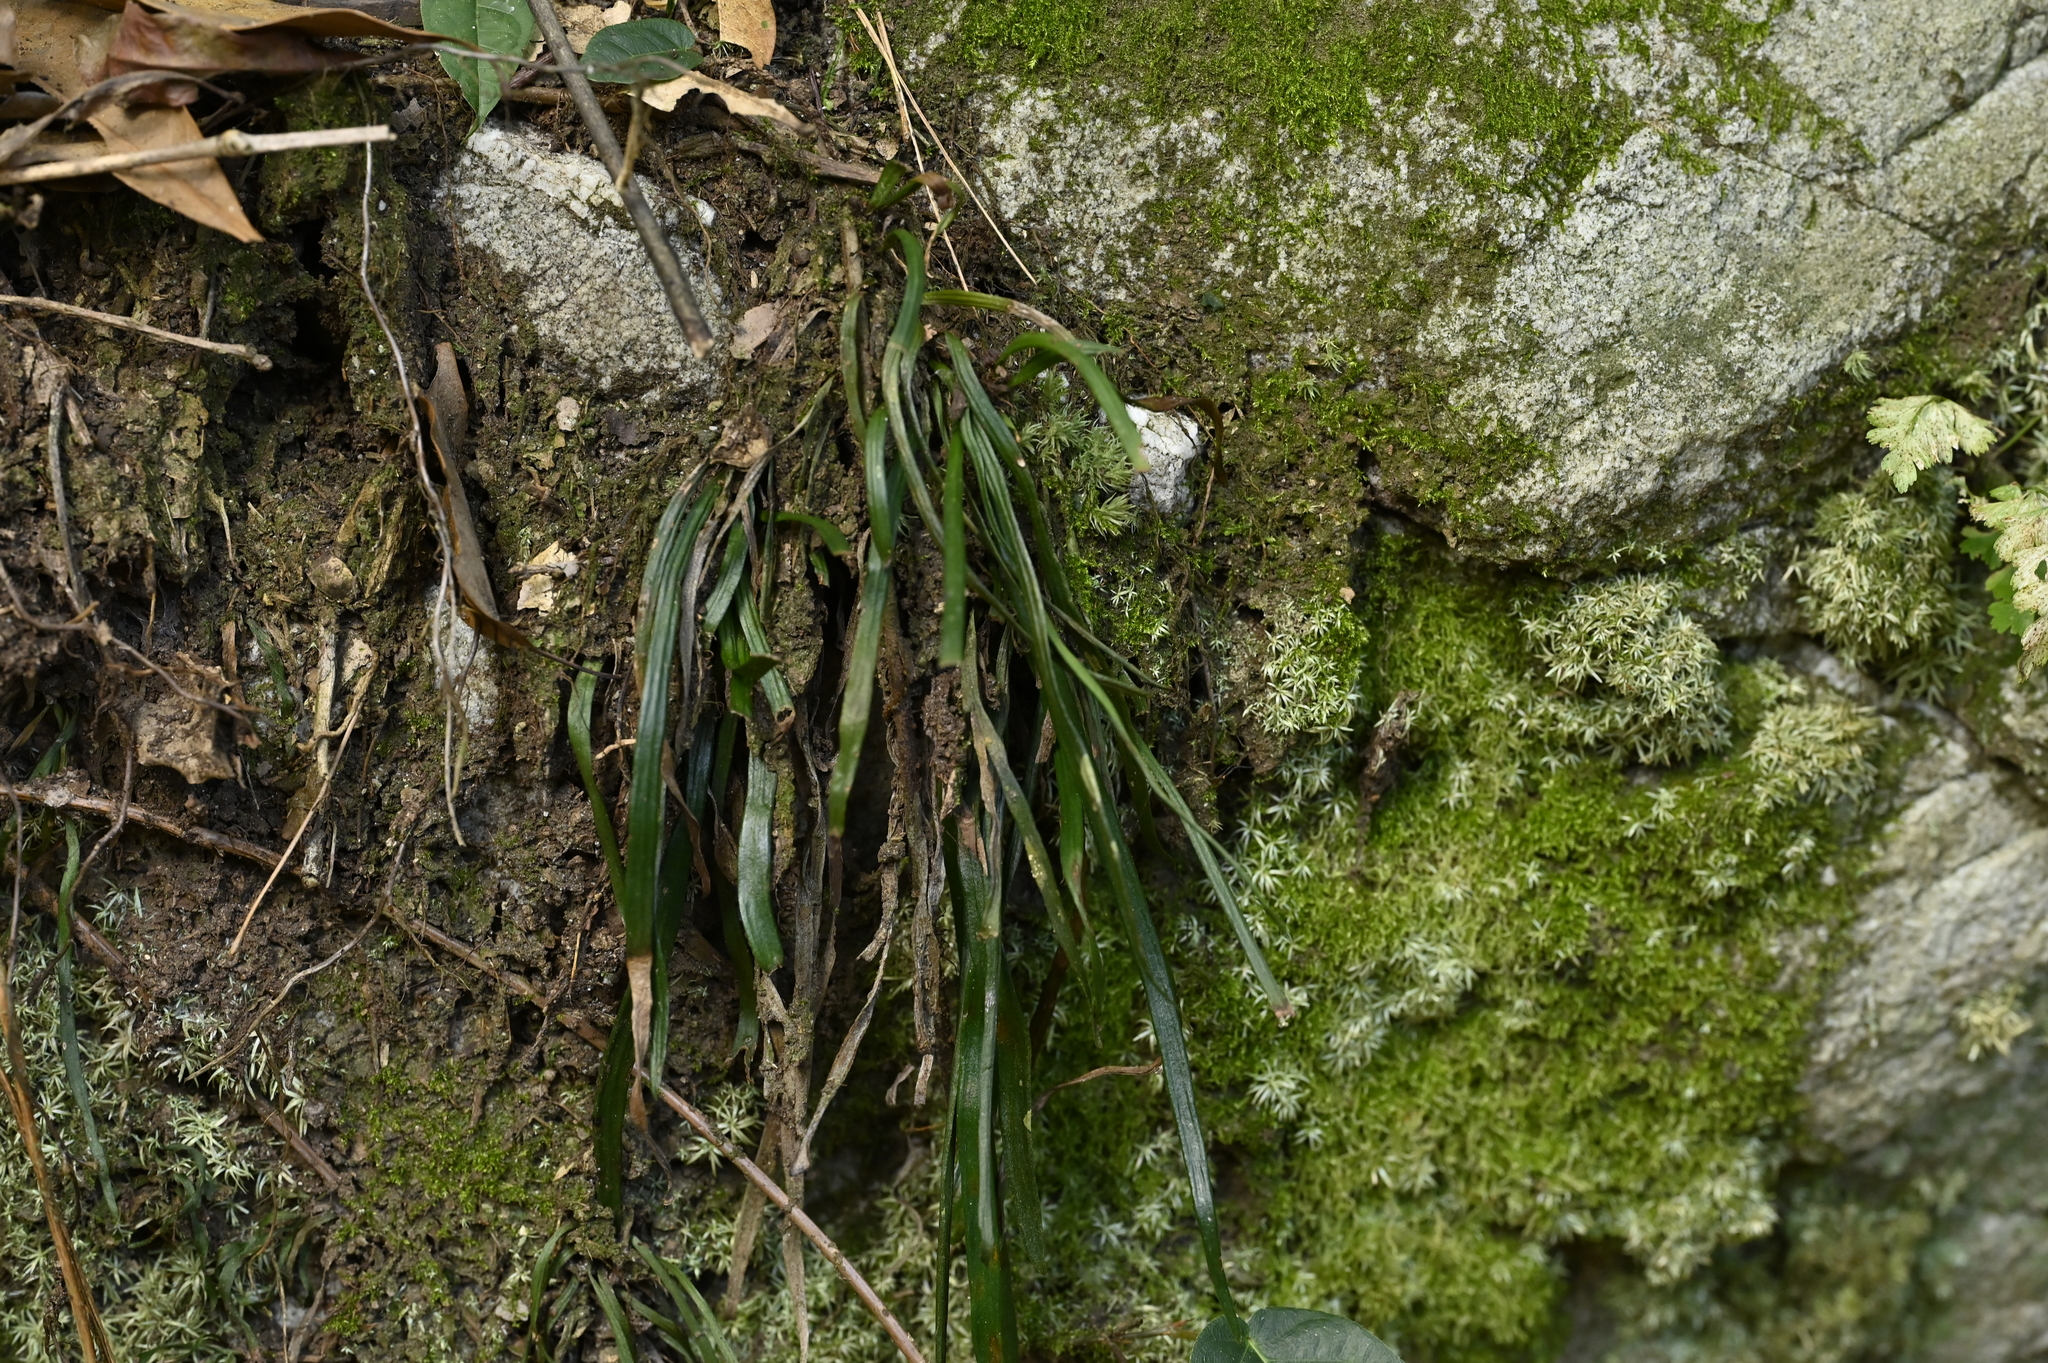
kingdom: Plantae
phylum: Tracheophyta
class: Polypodiopsida
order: Polypodiales
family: Pteridaceae
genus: Haplopteris
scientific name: Haplopteris anguste-elongata
